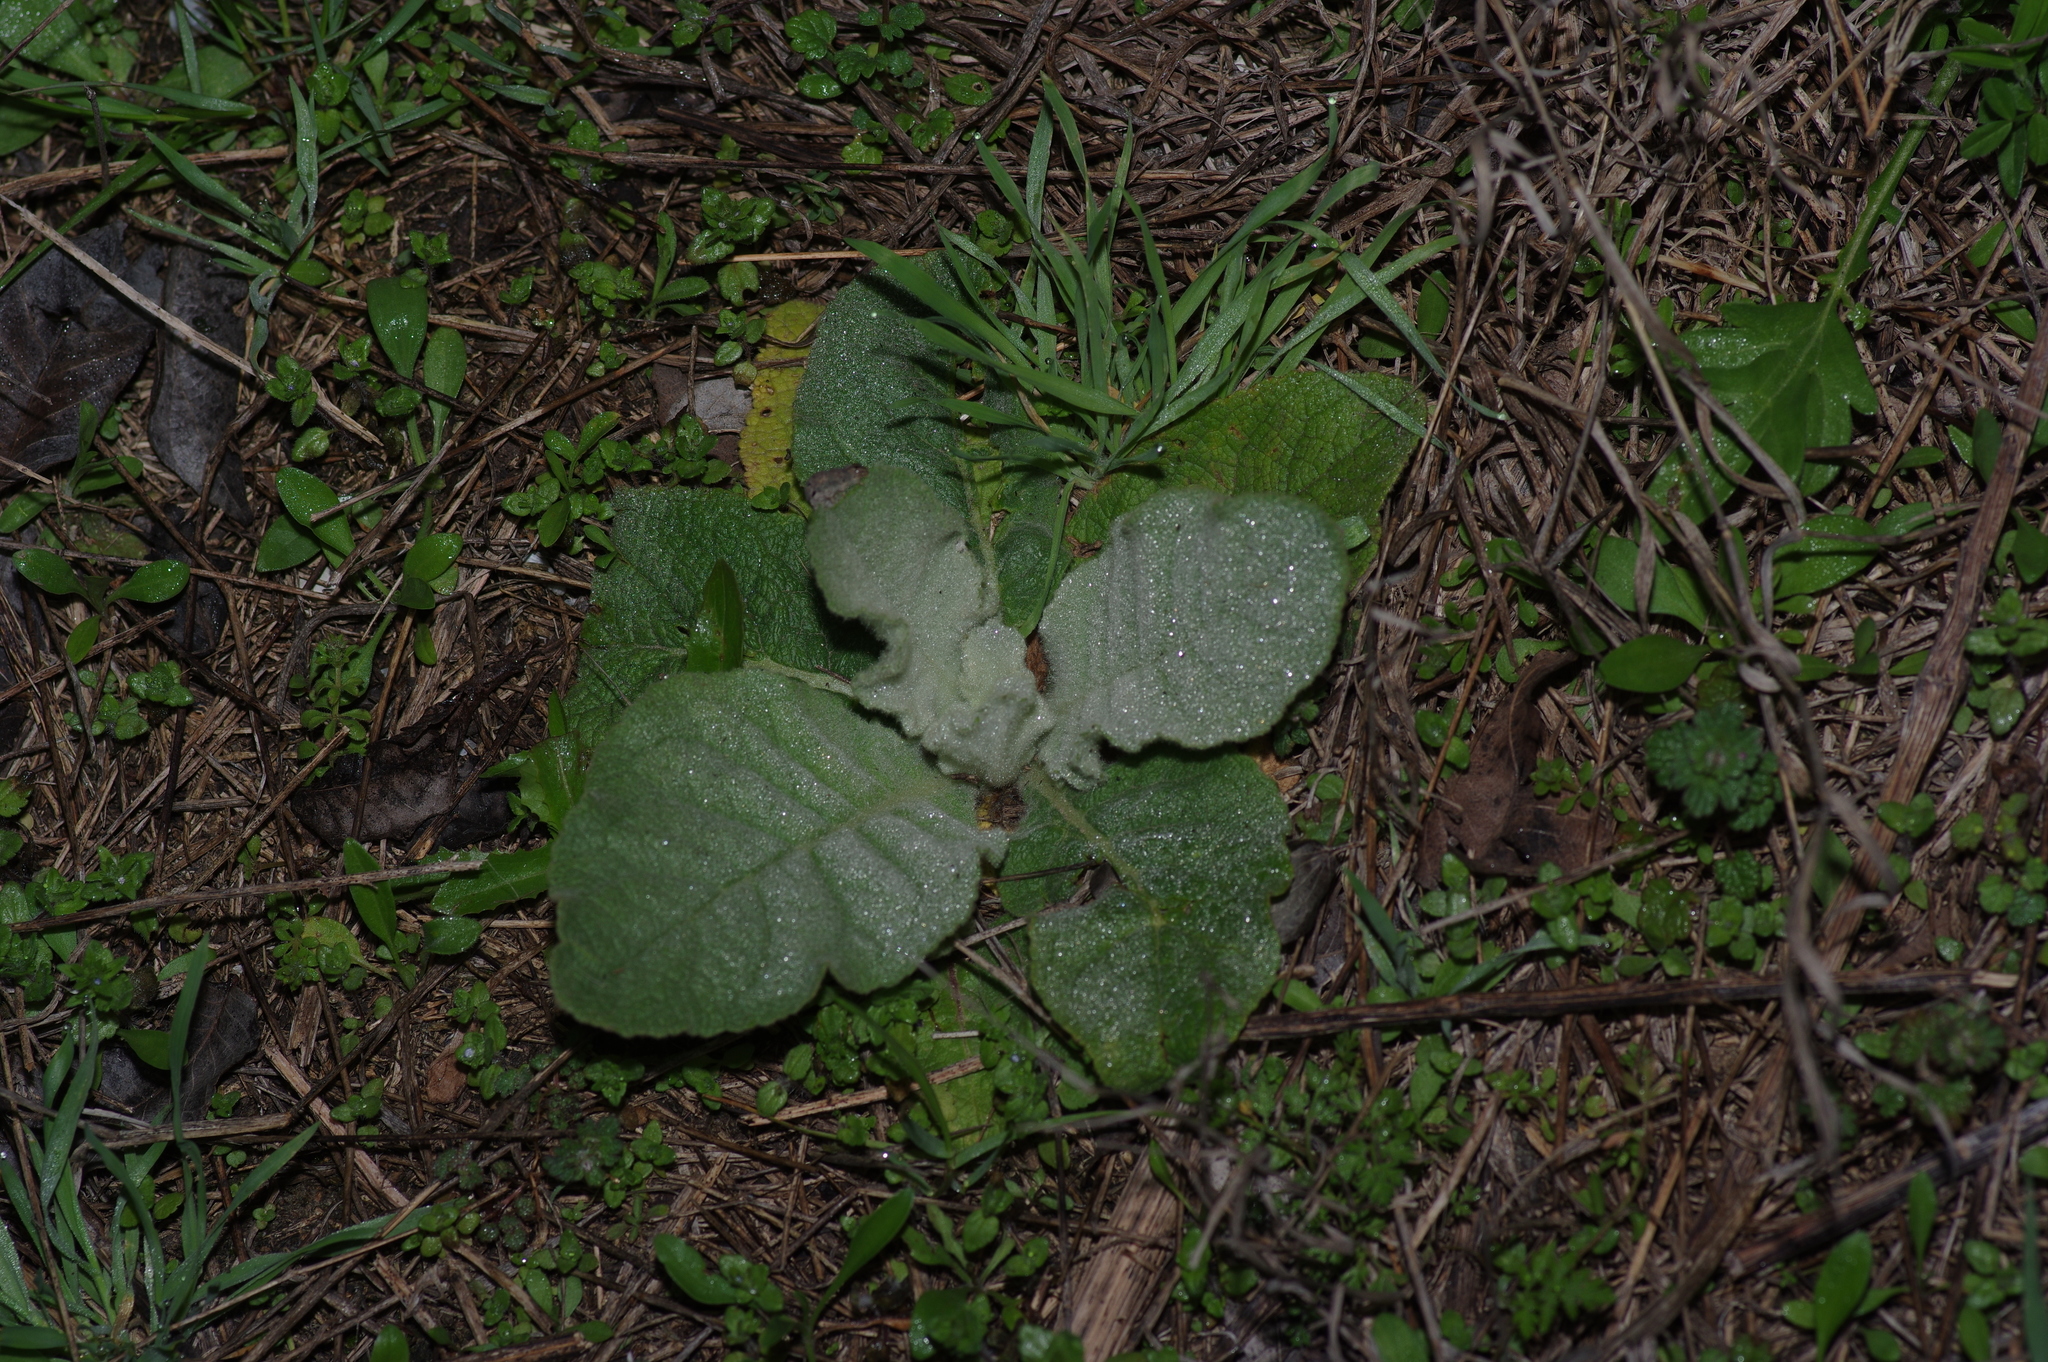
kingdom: Plantae
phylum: Tracheophyta
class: Magnoliopsida
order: Lamiales
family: Scrophulariaceae
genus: Verbascum
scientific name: Verbascum thapsus
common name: Common mullein
